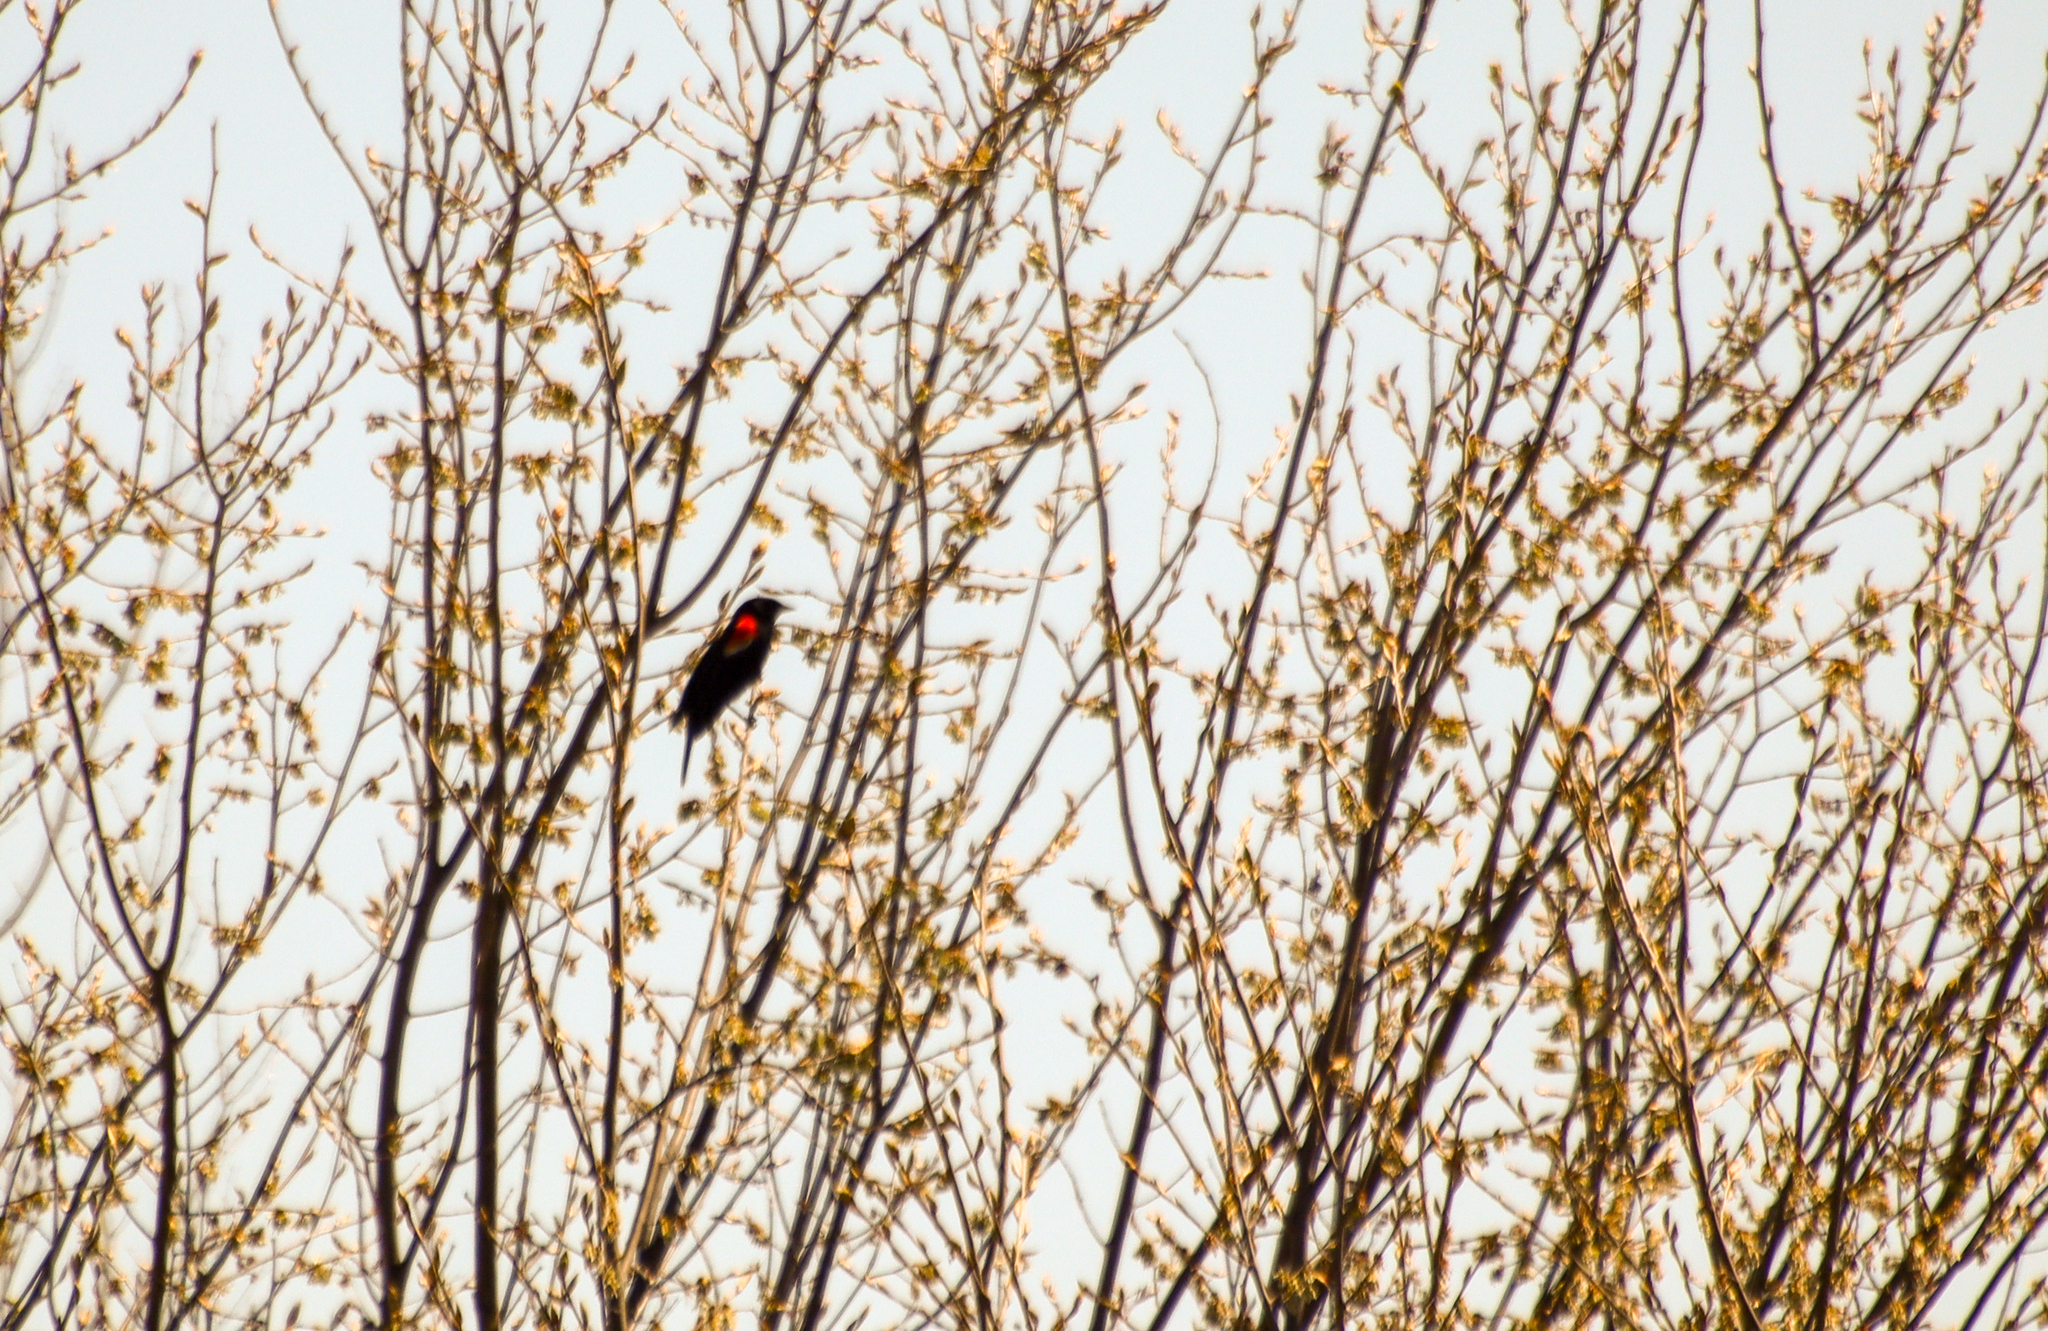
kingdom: Animalia
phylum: Chordata
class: Aves
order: Passeriformes
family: Icteridae
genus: Agelaius
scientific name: Agelaius phoeniceus
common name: Red-winged blackbird
